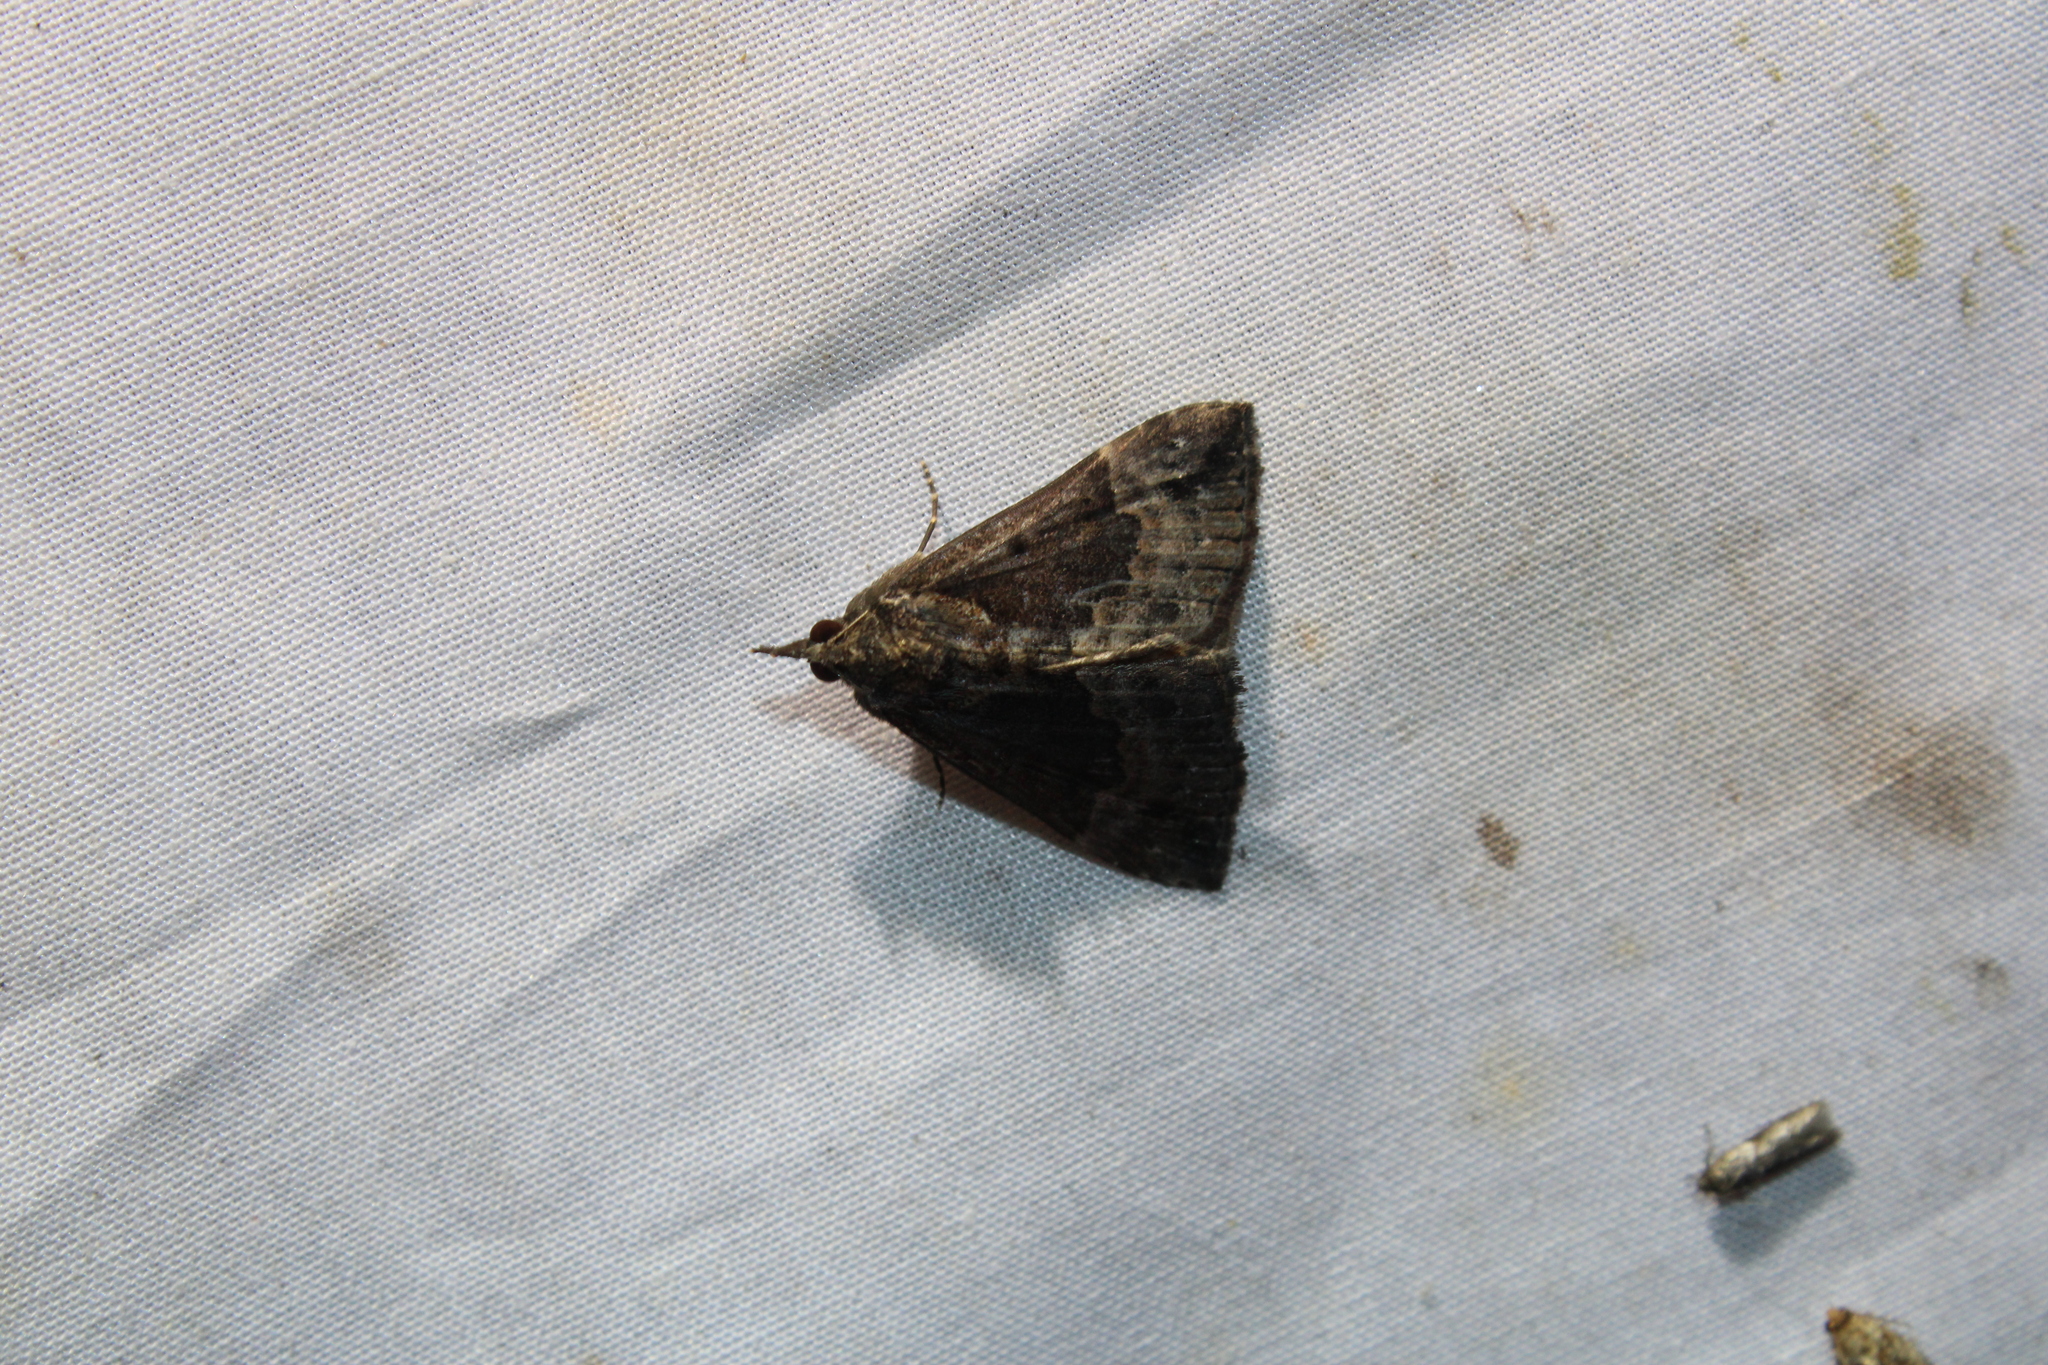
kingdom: Animalia
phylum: Arthropoda
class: Insecta
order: Lepidoptera
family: Erebidae
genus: Hypena
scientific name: Hypena baltimoralis
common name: Baltimore snout
